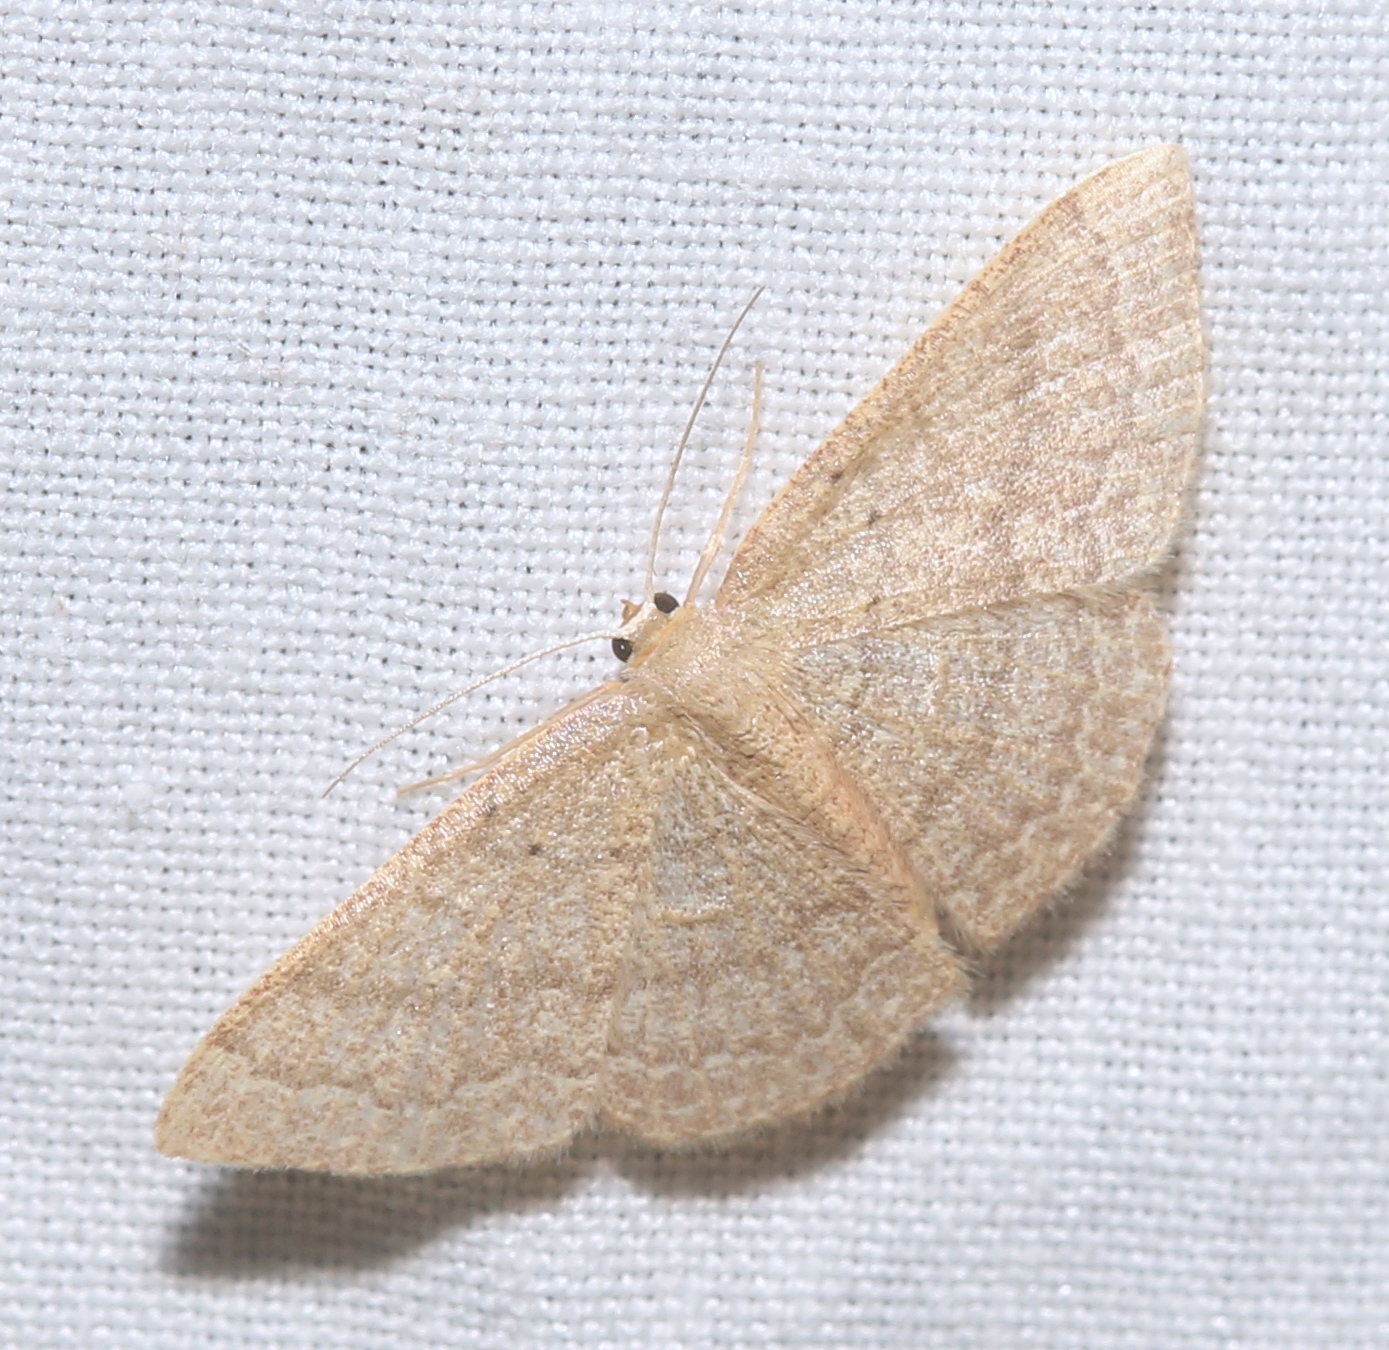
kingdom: Animalia
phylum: Arthropoda
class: Insecta
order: Lepidoptera
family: Geometridae
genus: Pleuroprucha
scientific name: Pleuroprucha insulsaria
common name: Common tan wave
